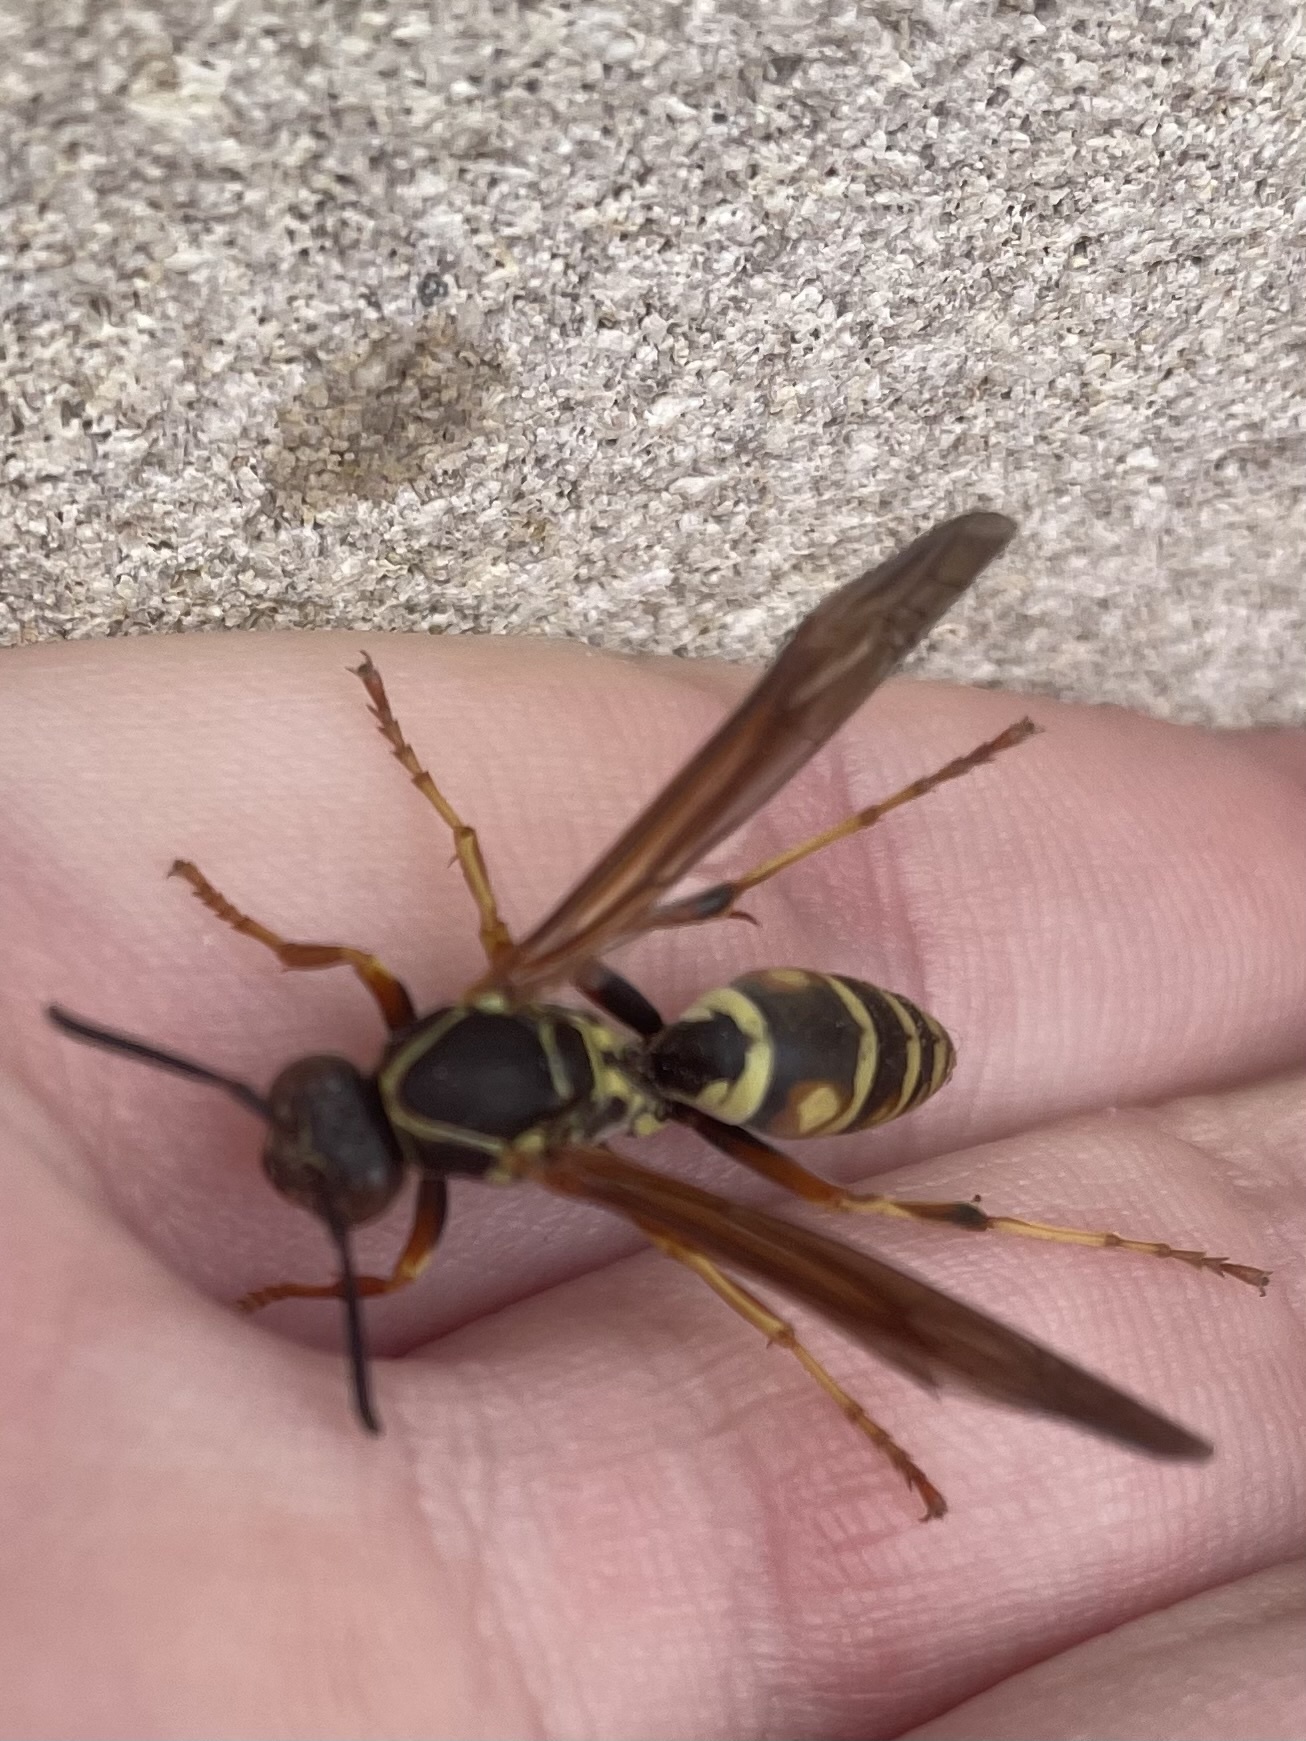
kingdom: Animalia
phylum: Arthropoda
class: Insecta
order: Hymenoptera
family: Eumenidae
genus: Polistes
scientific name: Polistes fuscatus
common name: Dark paper wasp
